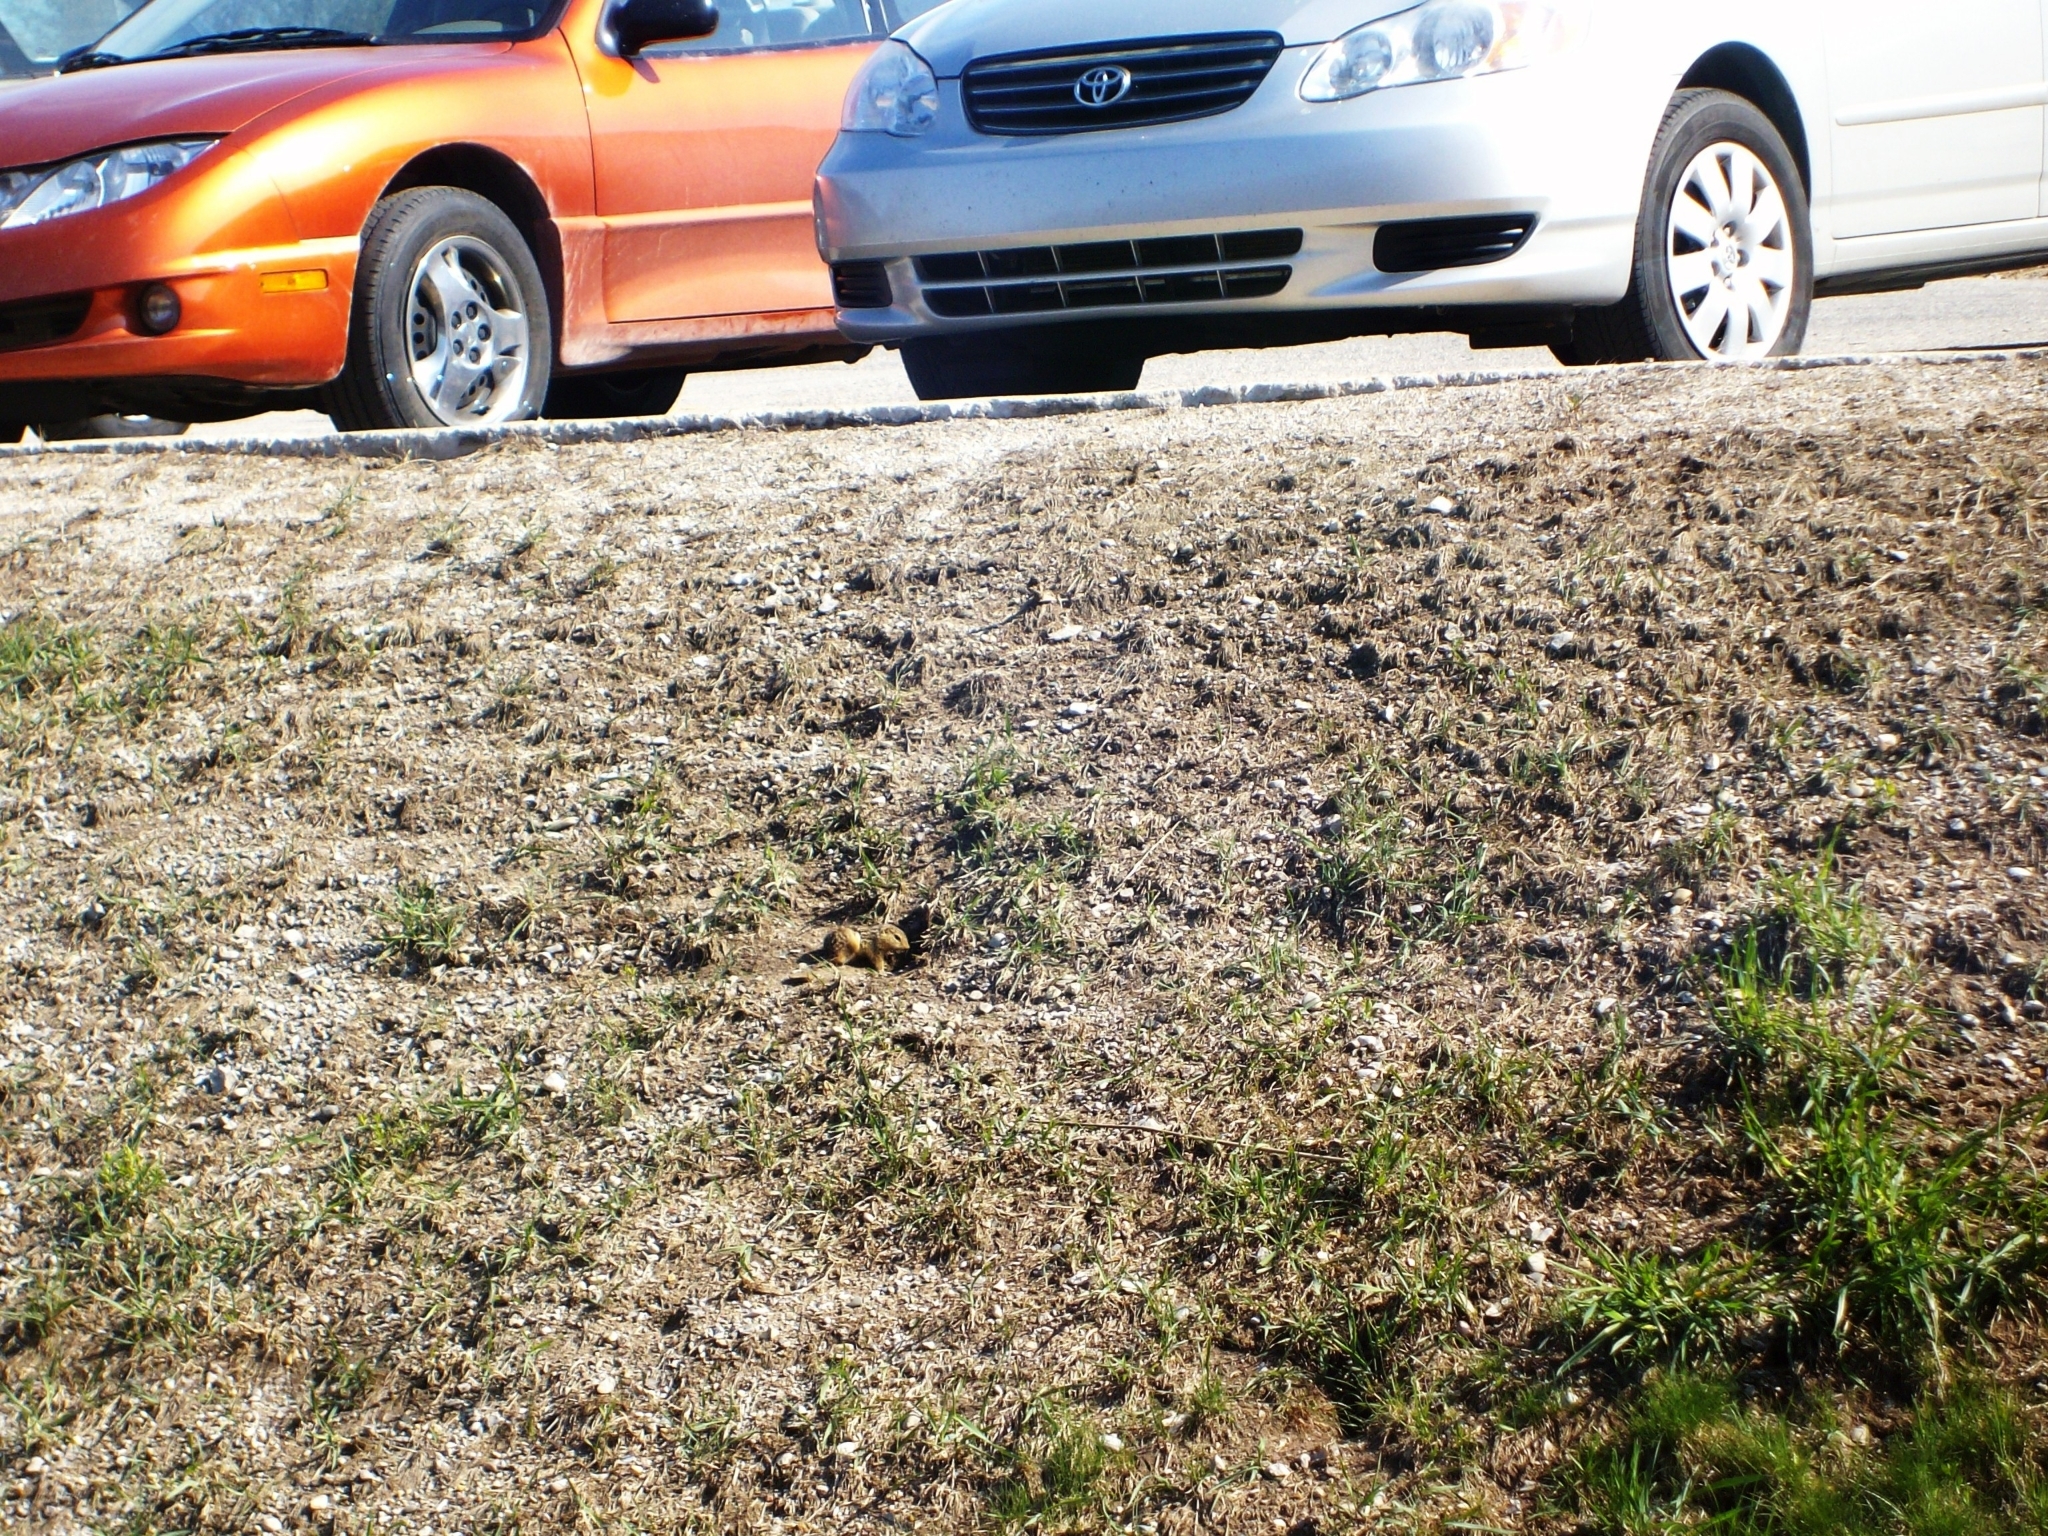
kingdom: Animalia
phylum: Chordata
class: Mammalia
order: Rodentia
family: Sciuridae
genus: Ictidomys
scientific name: Ictidomys tridecemlineatus
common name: Thirteen-lined ground squirrel
